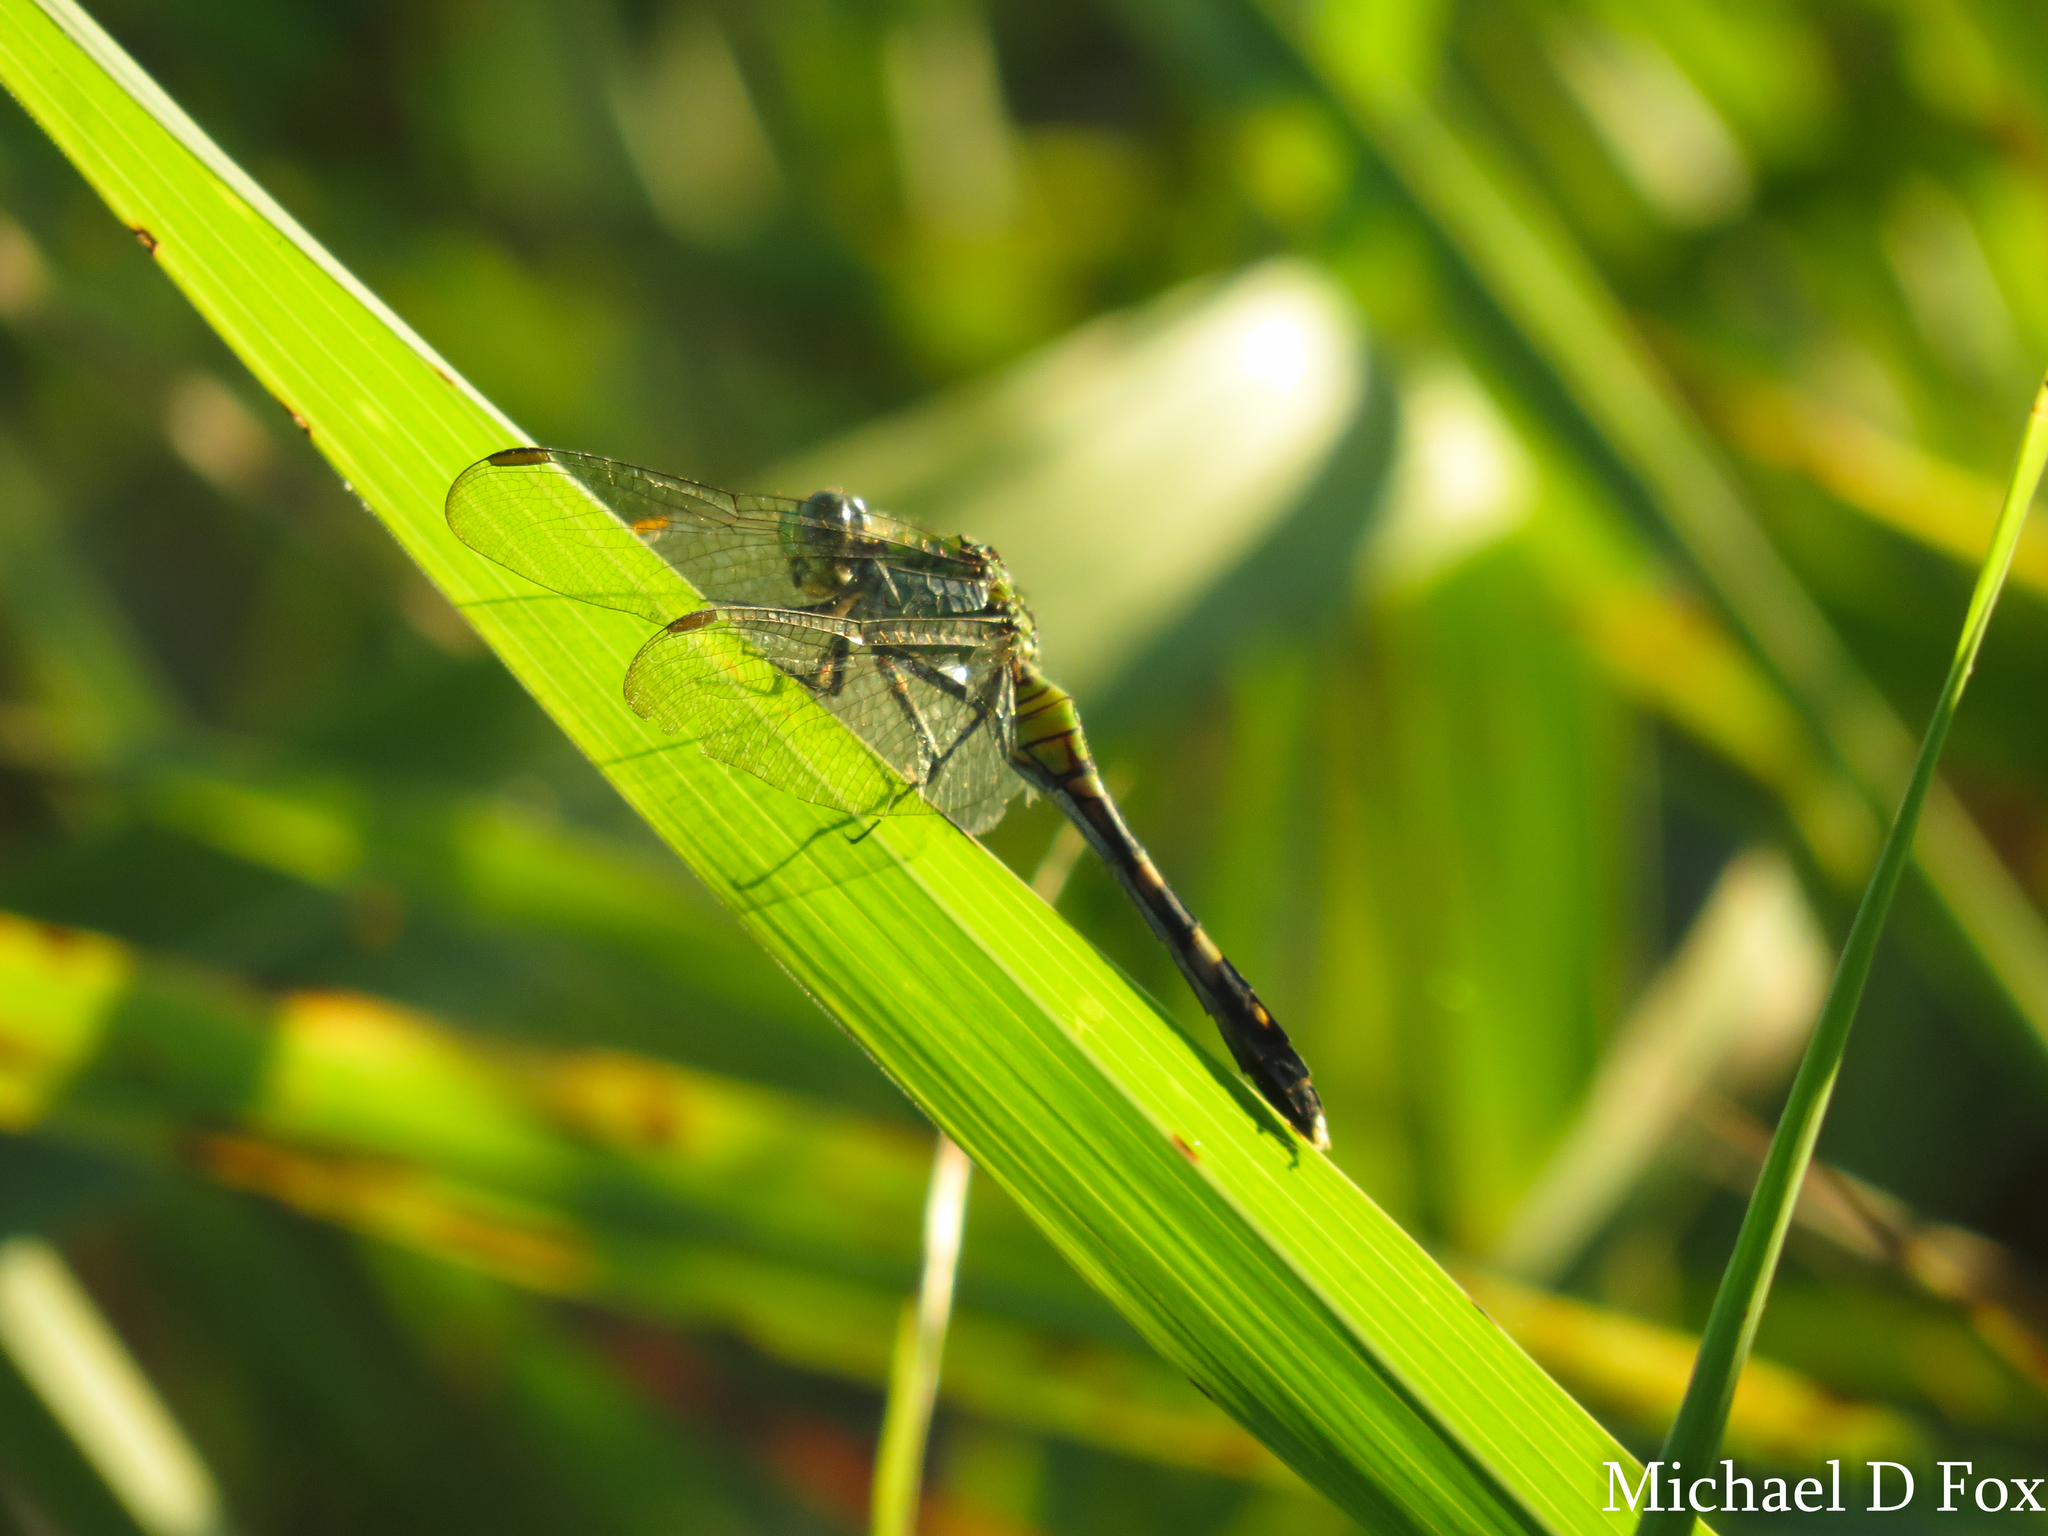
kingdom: Animalia
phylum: Arthropoda
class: Insecta
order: Odonata
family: Libellulidae
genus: Erythemis
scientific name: Erythemis simplicicollis
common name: Eastern pondhawk
